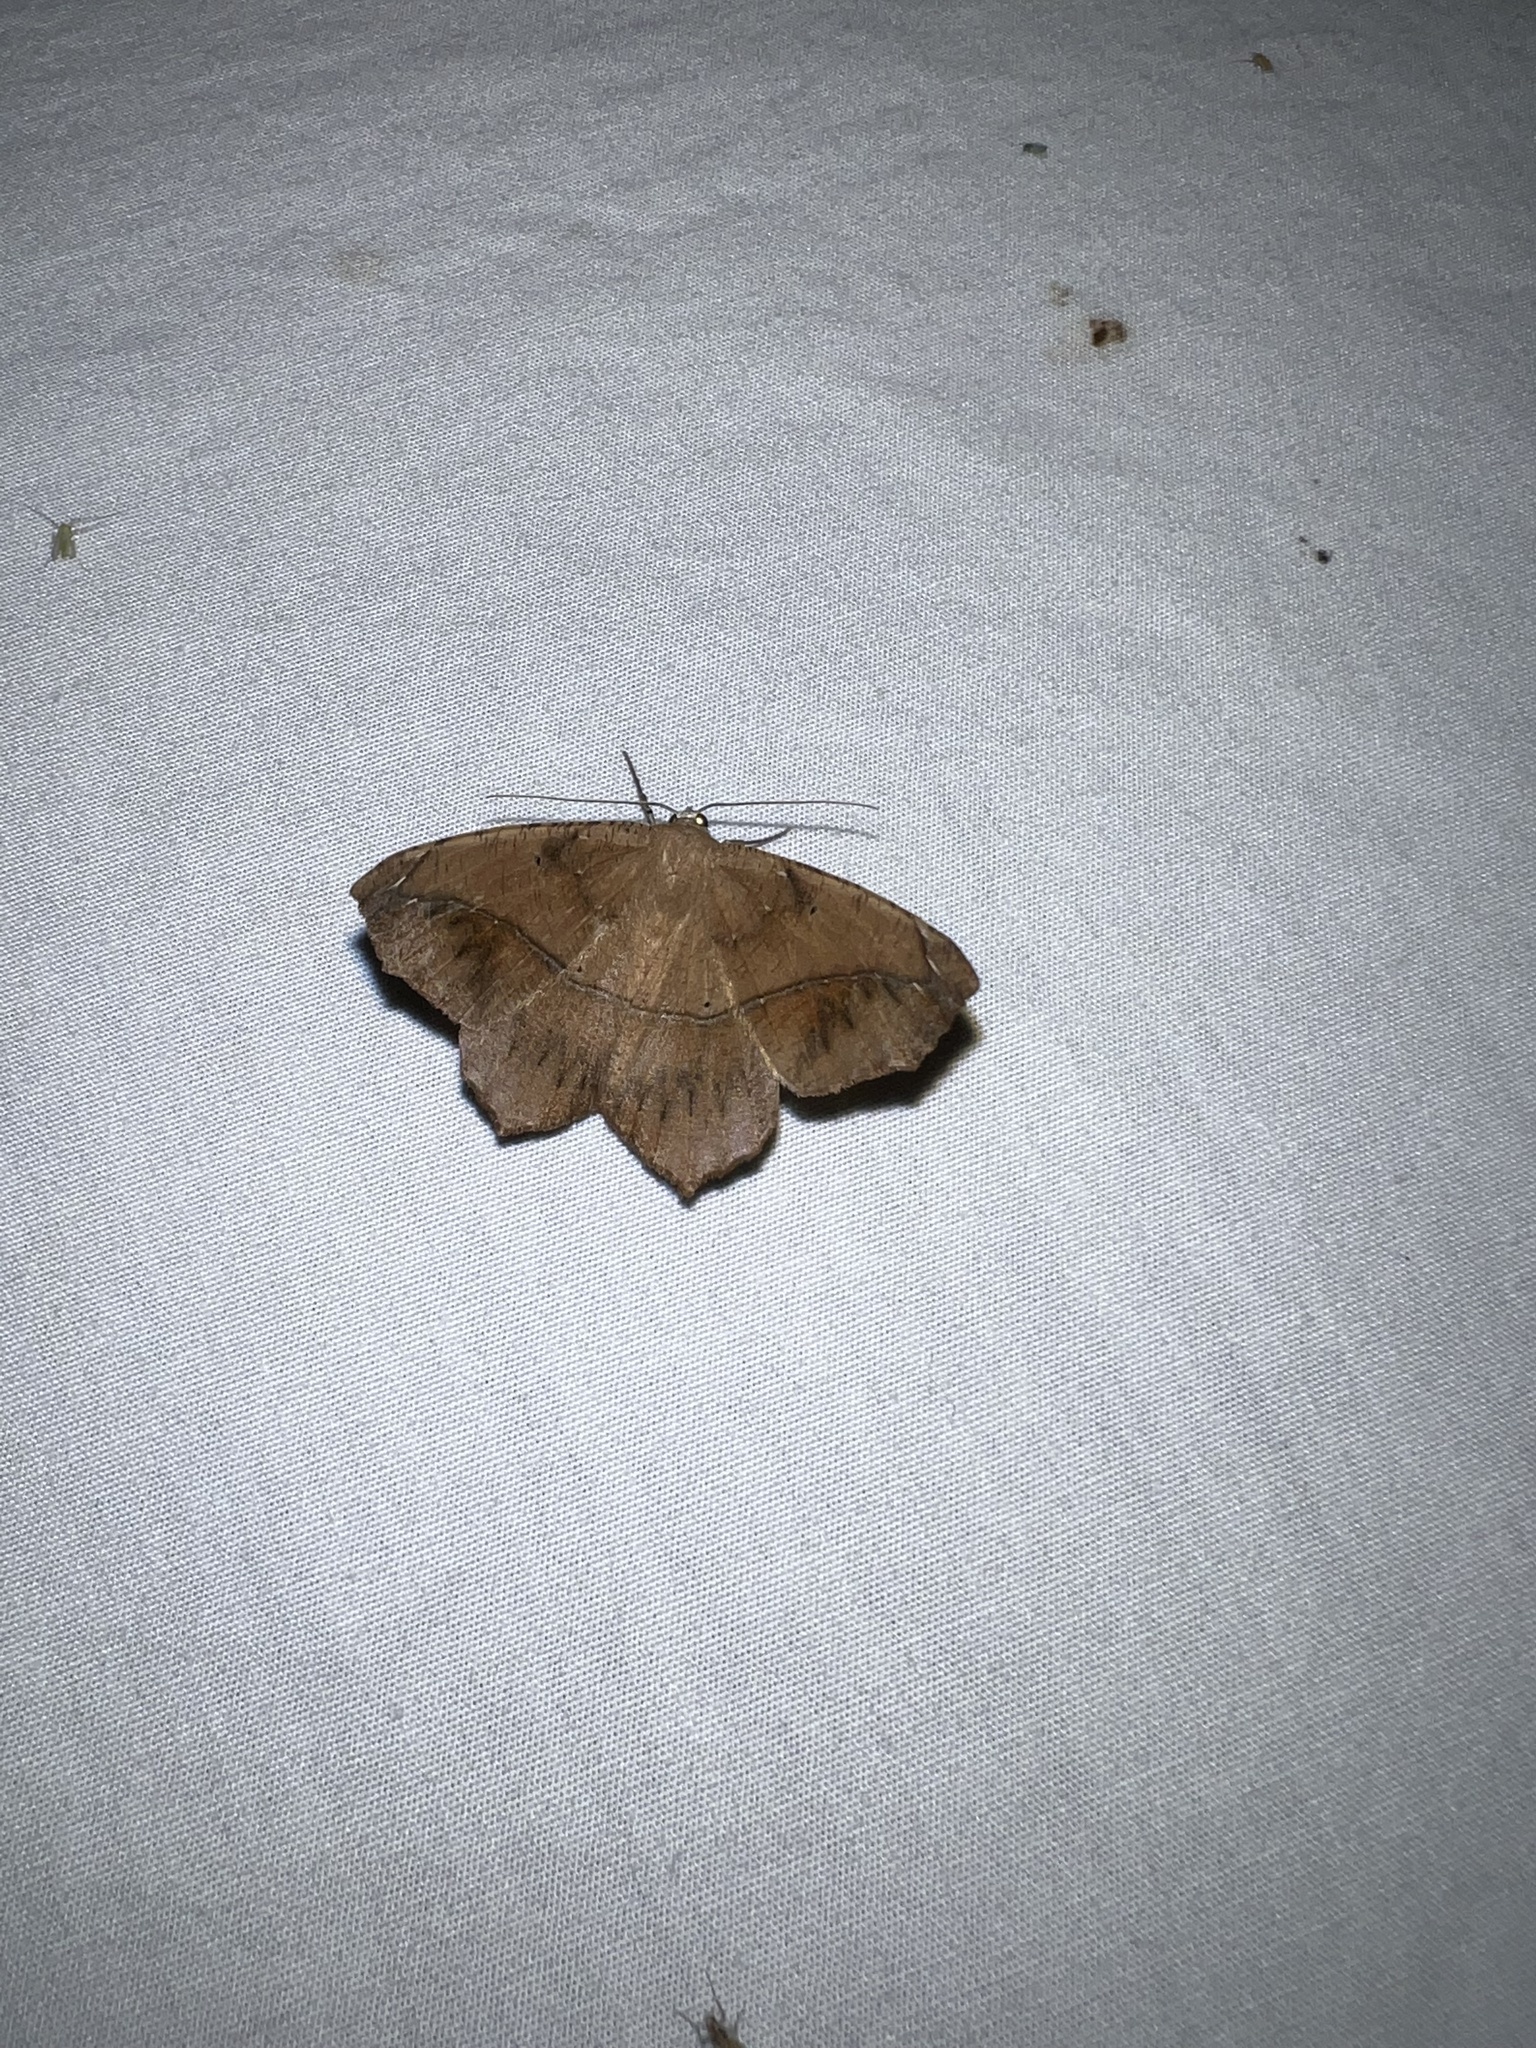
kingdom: Animalia
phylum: Arthropoda
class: Insecta
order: Lepidoptera
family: Geometridae
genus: Prochoerodes
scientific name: Prochoerodes lineola
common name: Large maple spanworm
